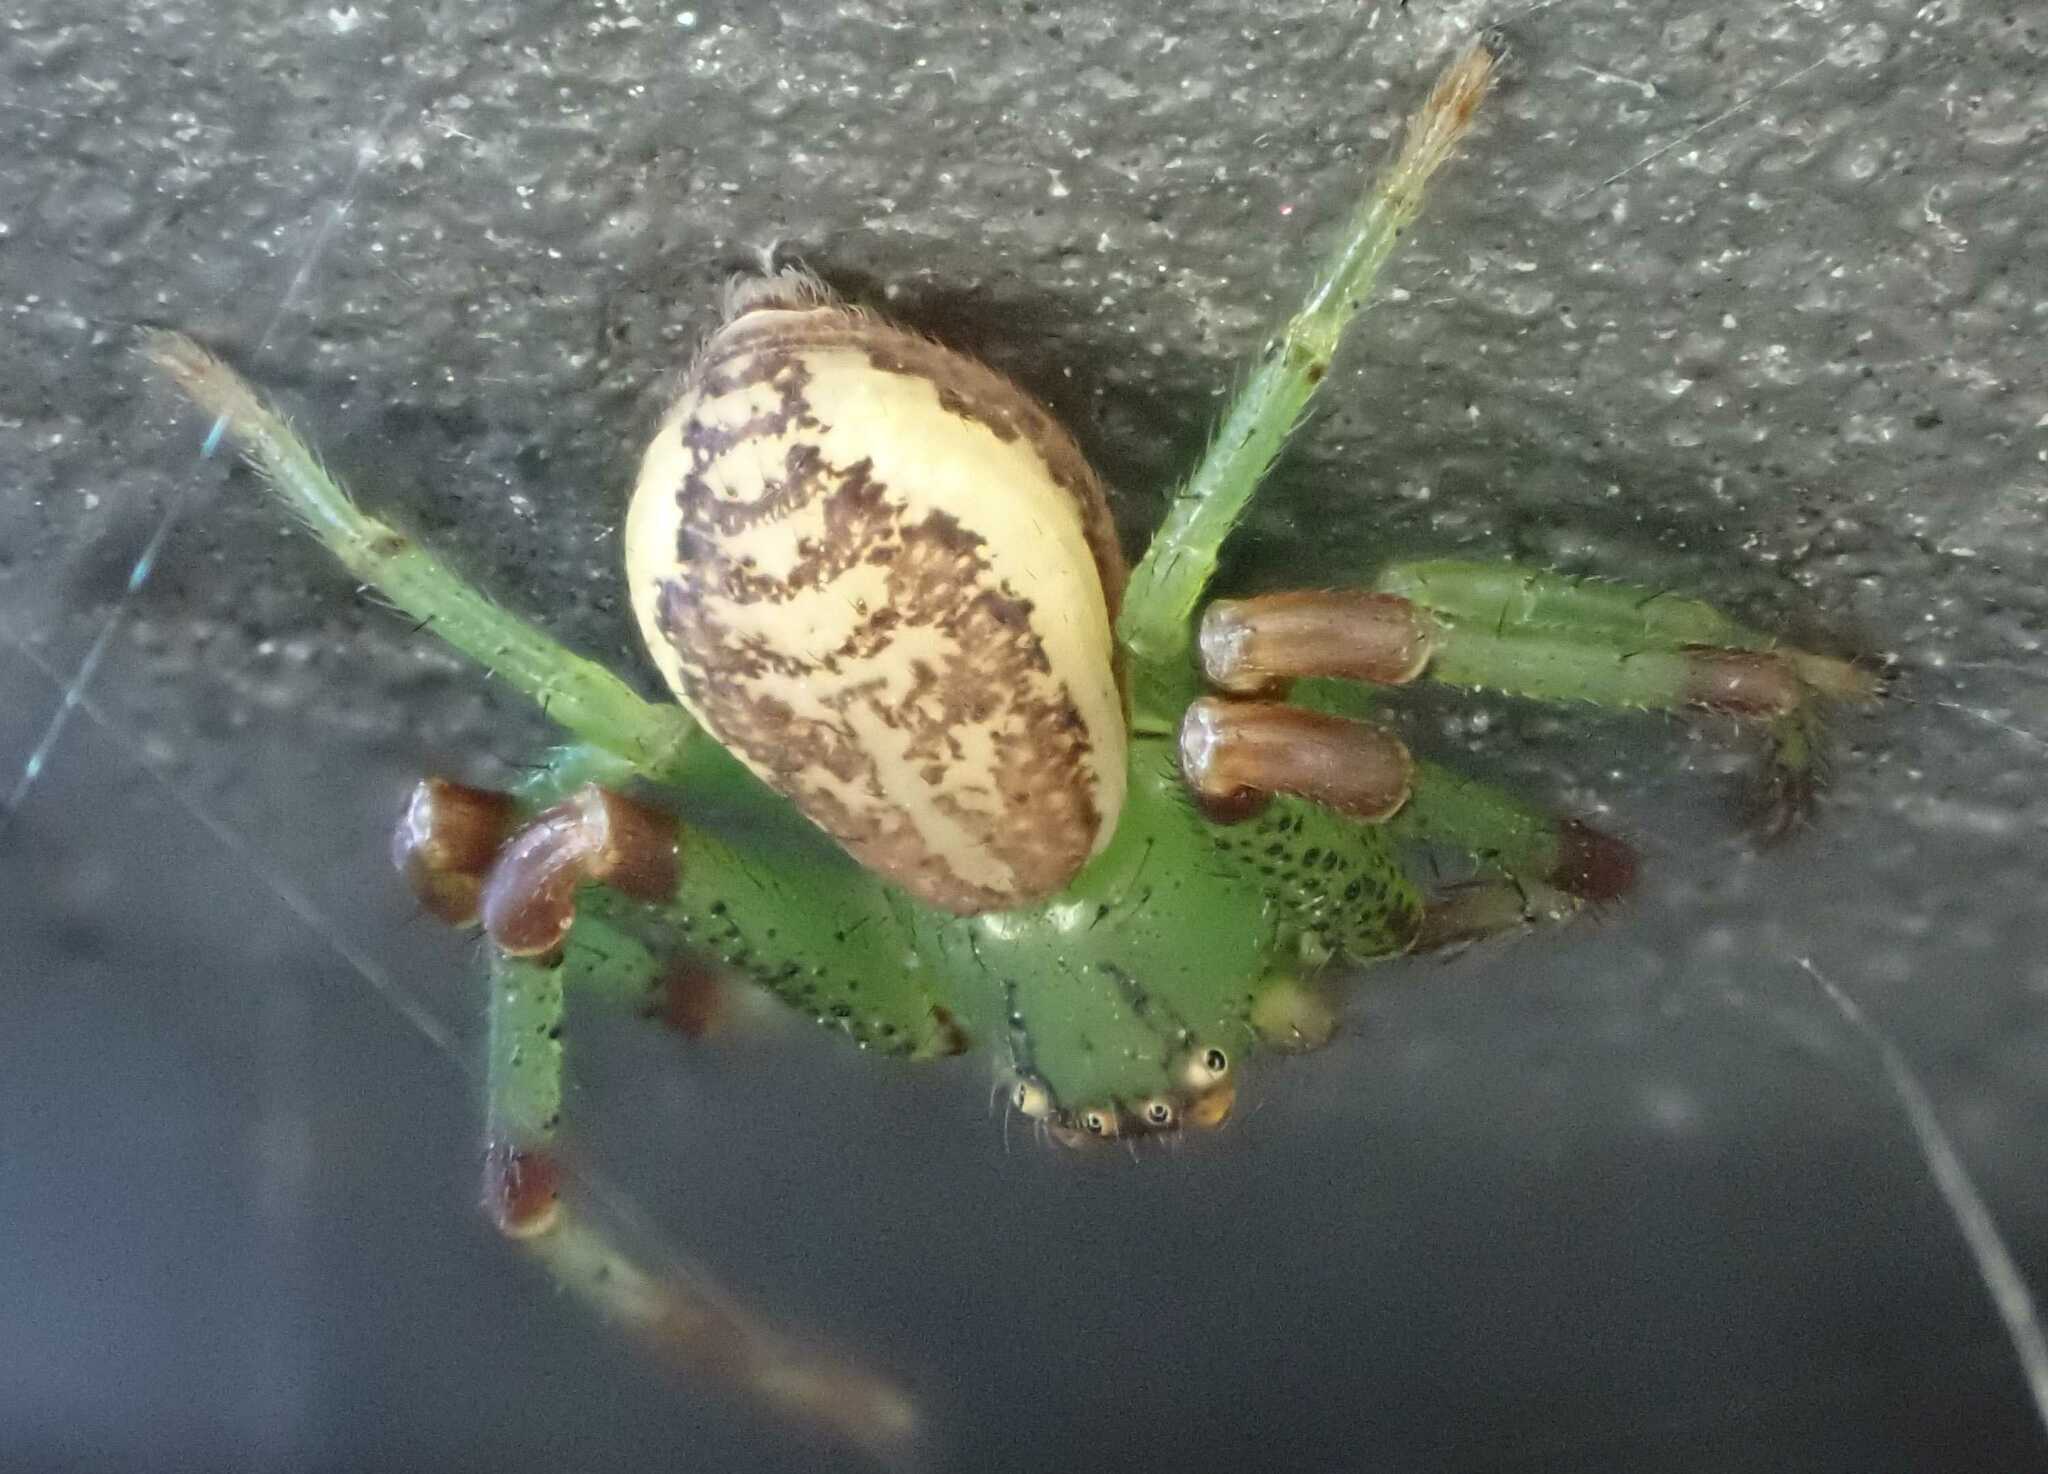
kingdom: Animalia
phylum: Arthropoda
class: Arachnida
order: Araneae
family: Thomisidae
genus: Diaea
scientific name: Diaea dorsata
